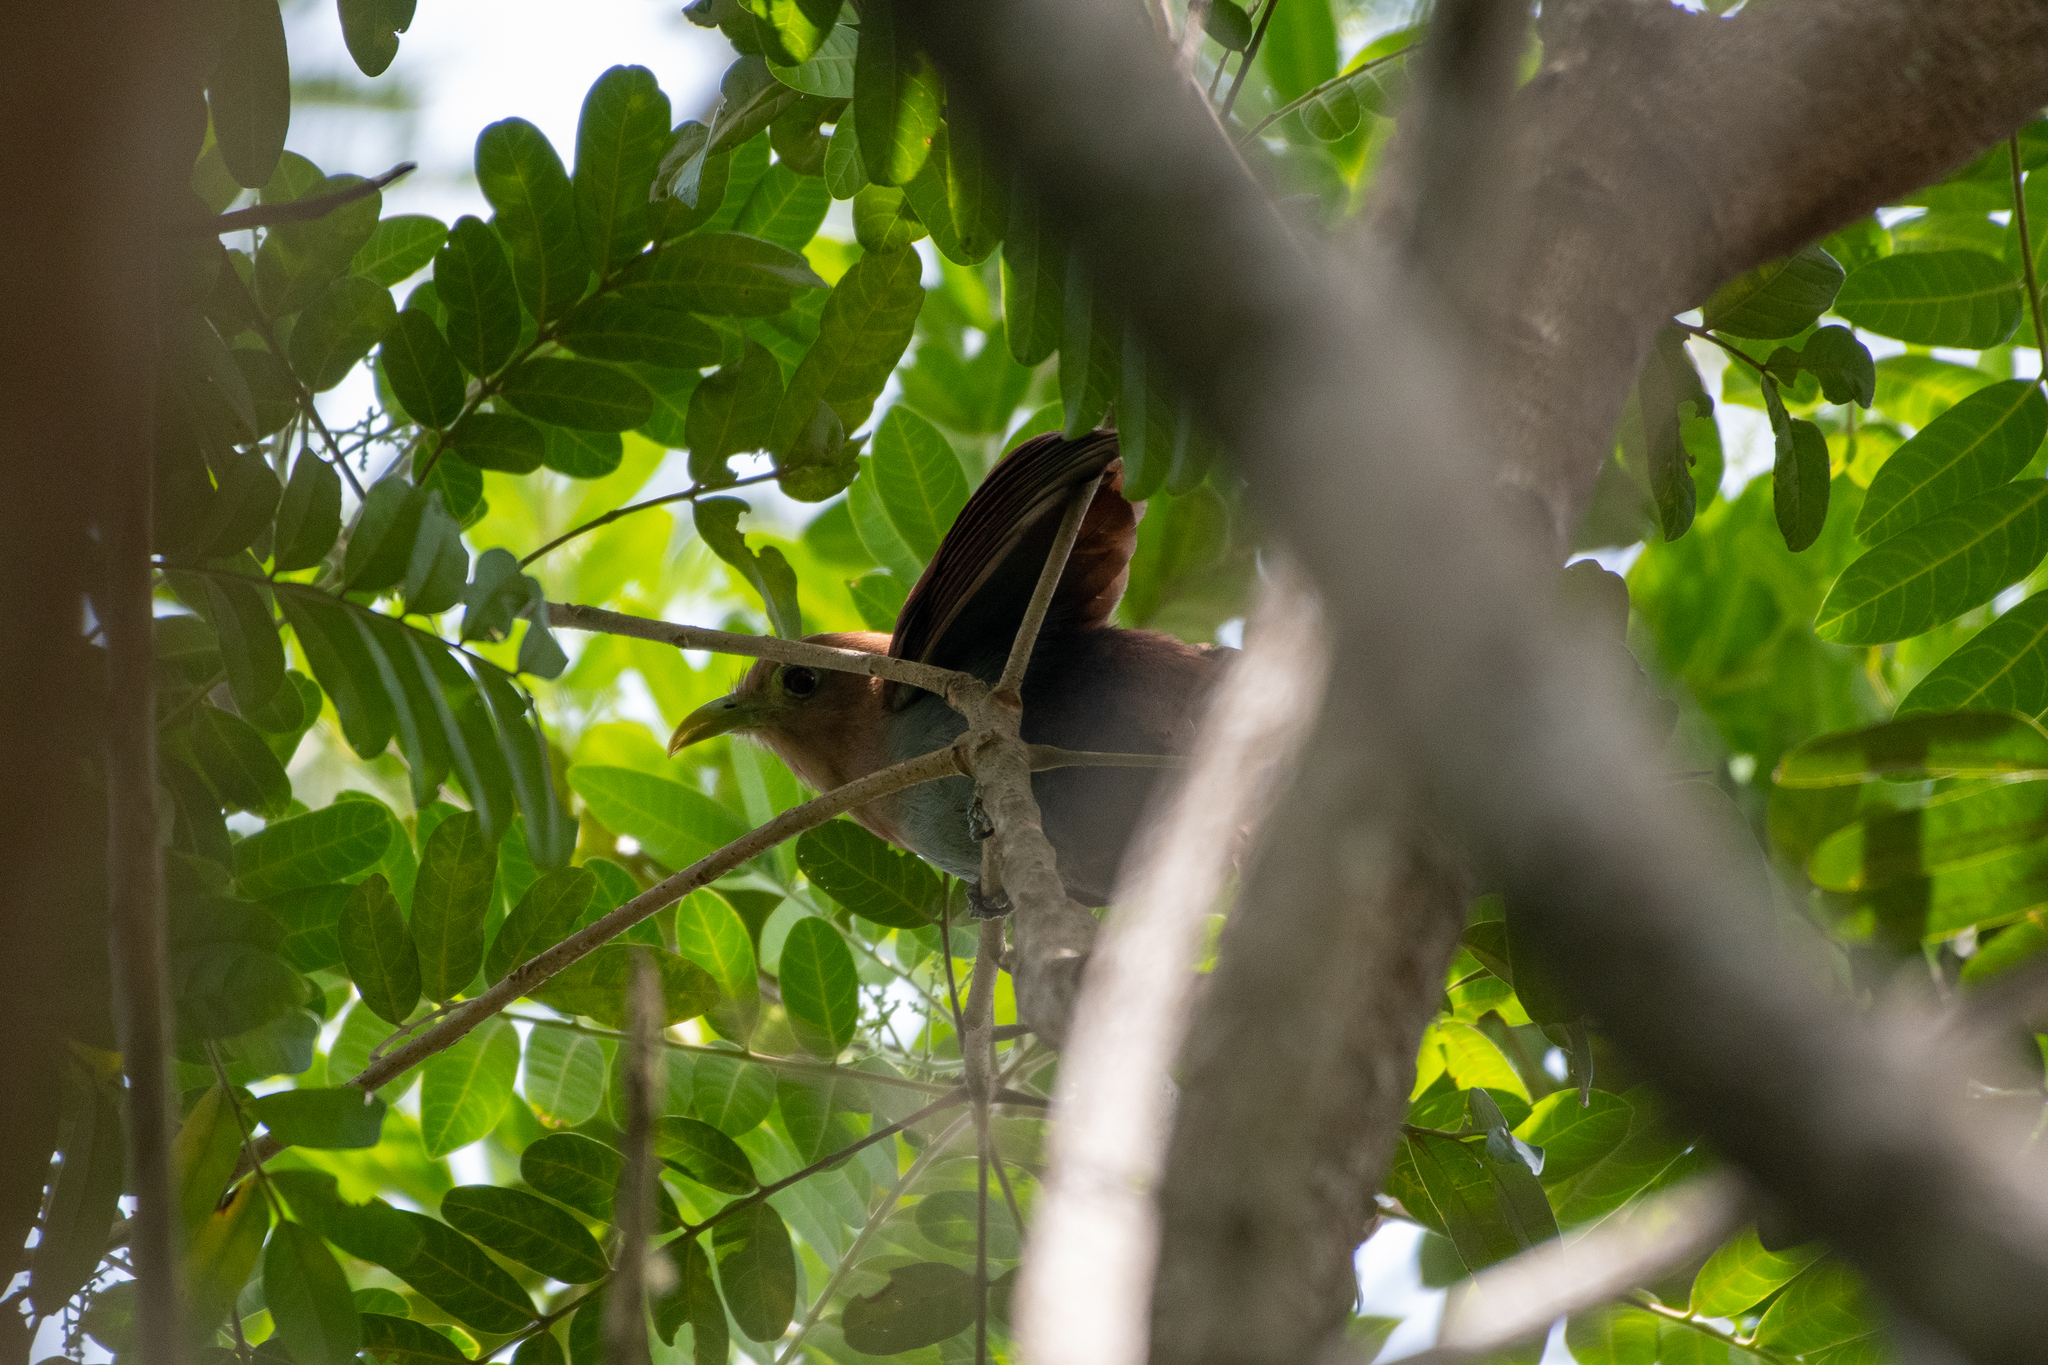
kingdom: Animalia
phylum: Chordata
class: Aves
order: Cuculiformes
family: Cuculidae
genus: Piaya
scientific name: Piaya cayana
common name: Squirrel cuckoo
